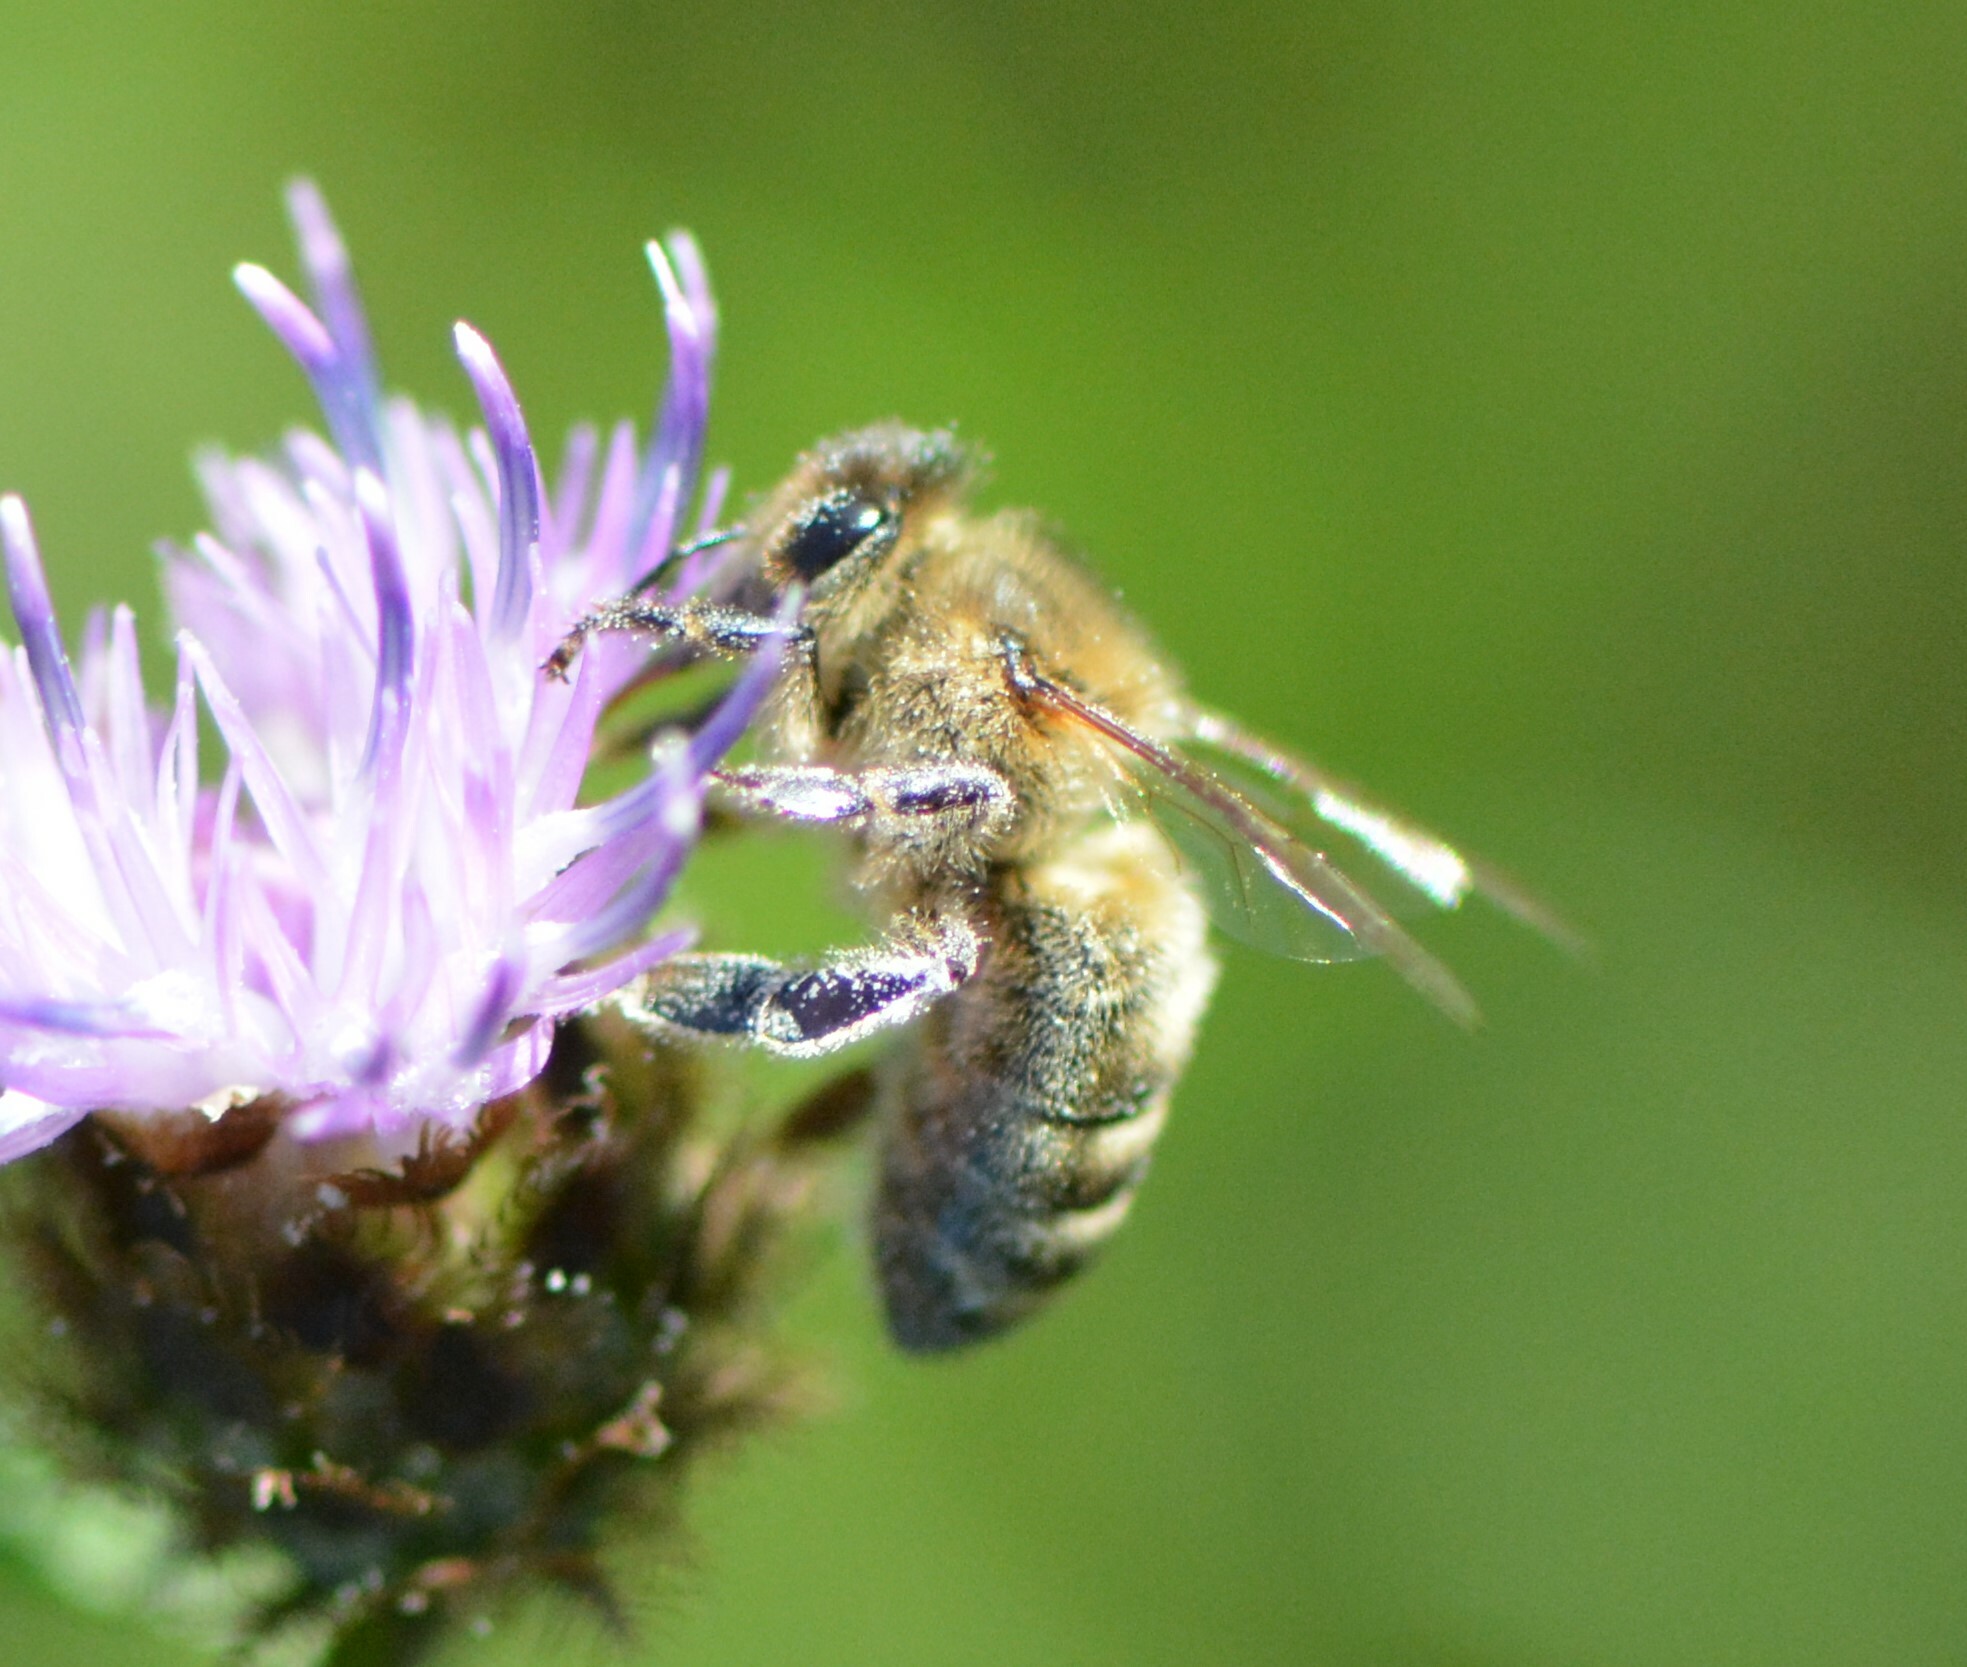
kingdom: Animalia
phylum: Arthropoda
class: Insecta
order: Hymenoptera
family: Apidae
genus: Apis
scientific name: Apis mellifera
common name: Honey bee
